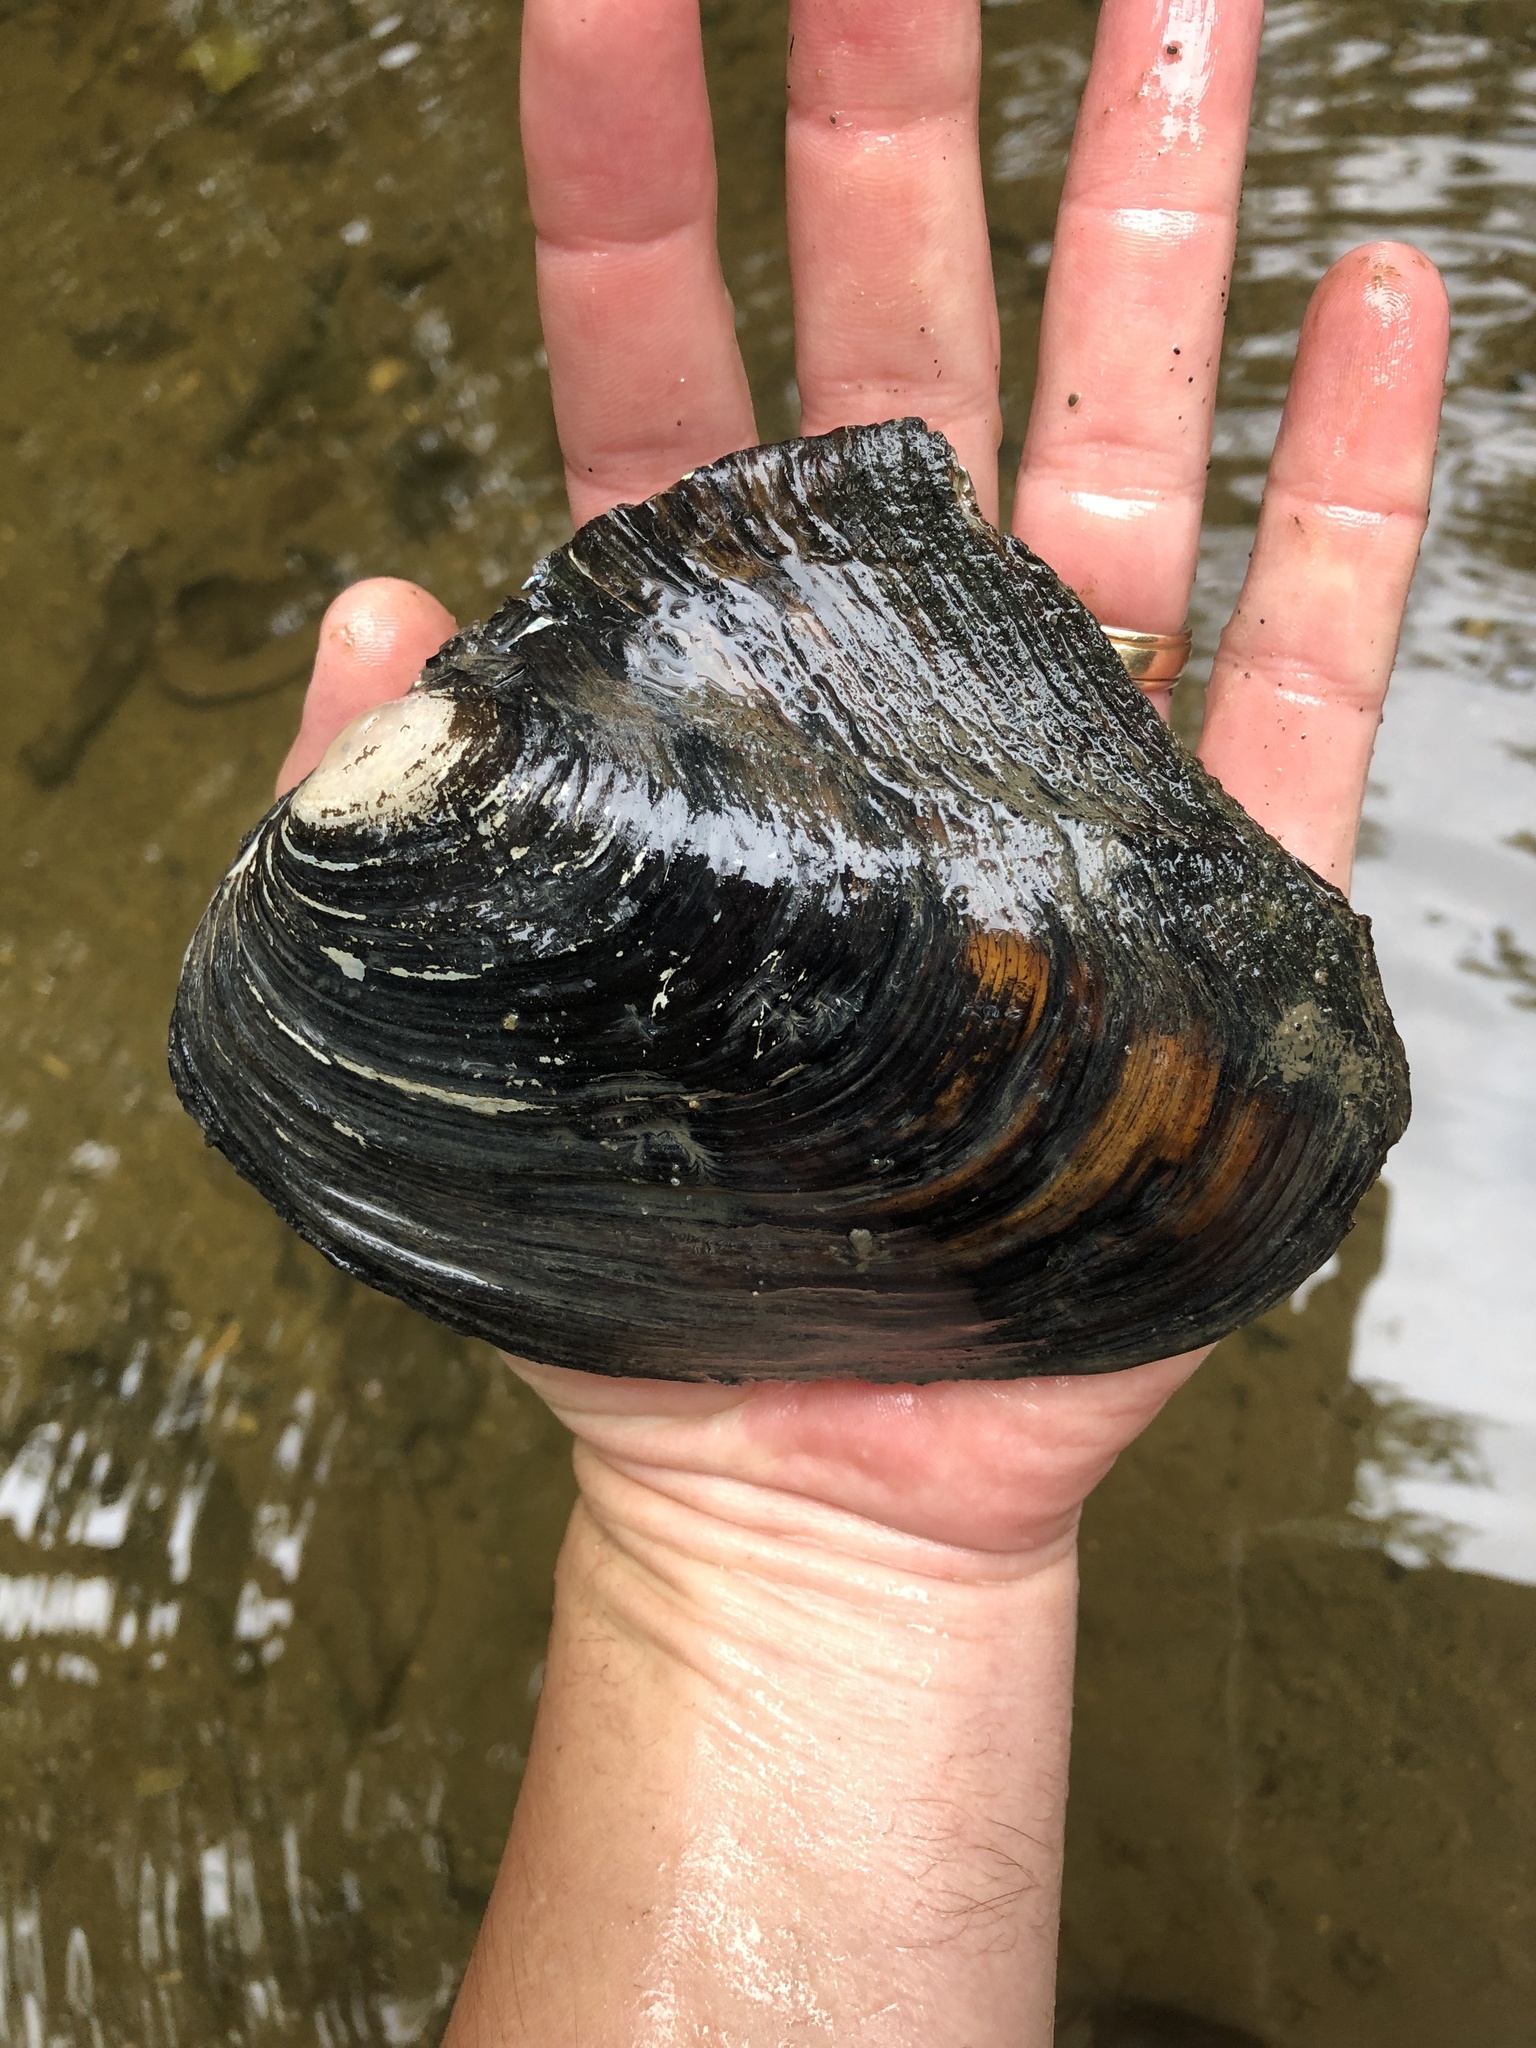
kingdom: Animalia
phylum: Mollusca
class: Bivalvia
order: Unionida
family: Unionidae
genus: Potamilus
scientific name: Potamilus alatus
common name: Pink heelsplitter
